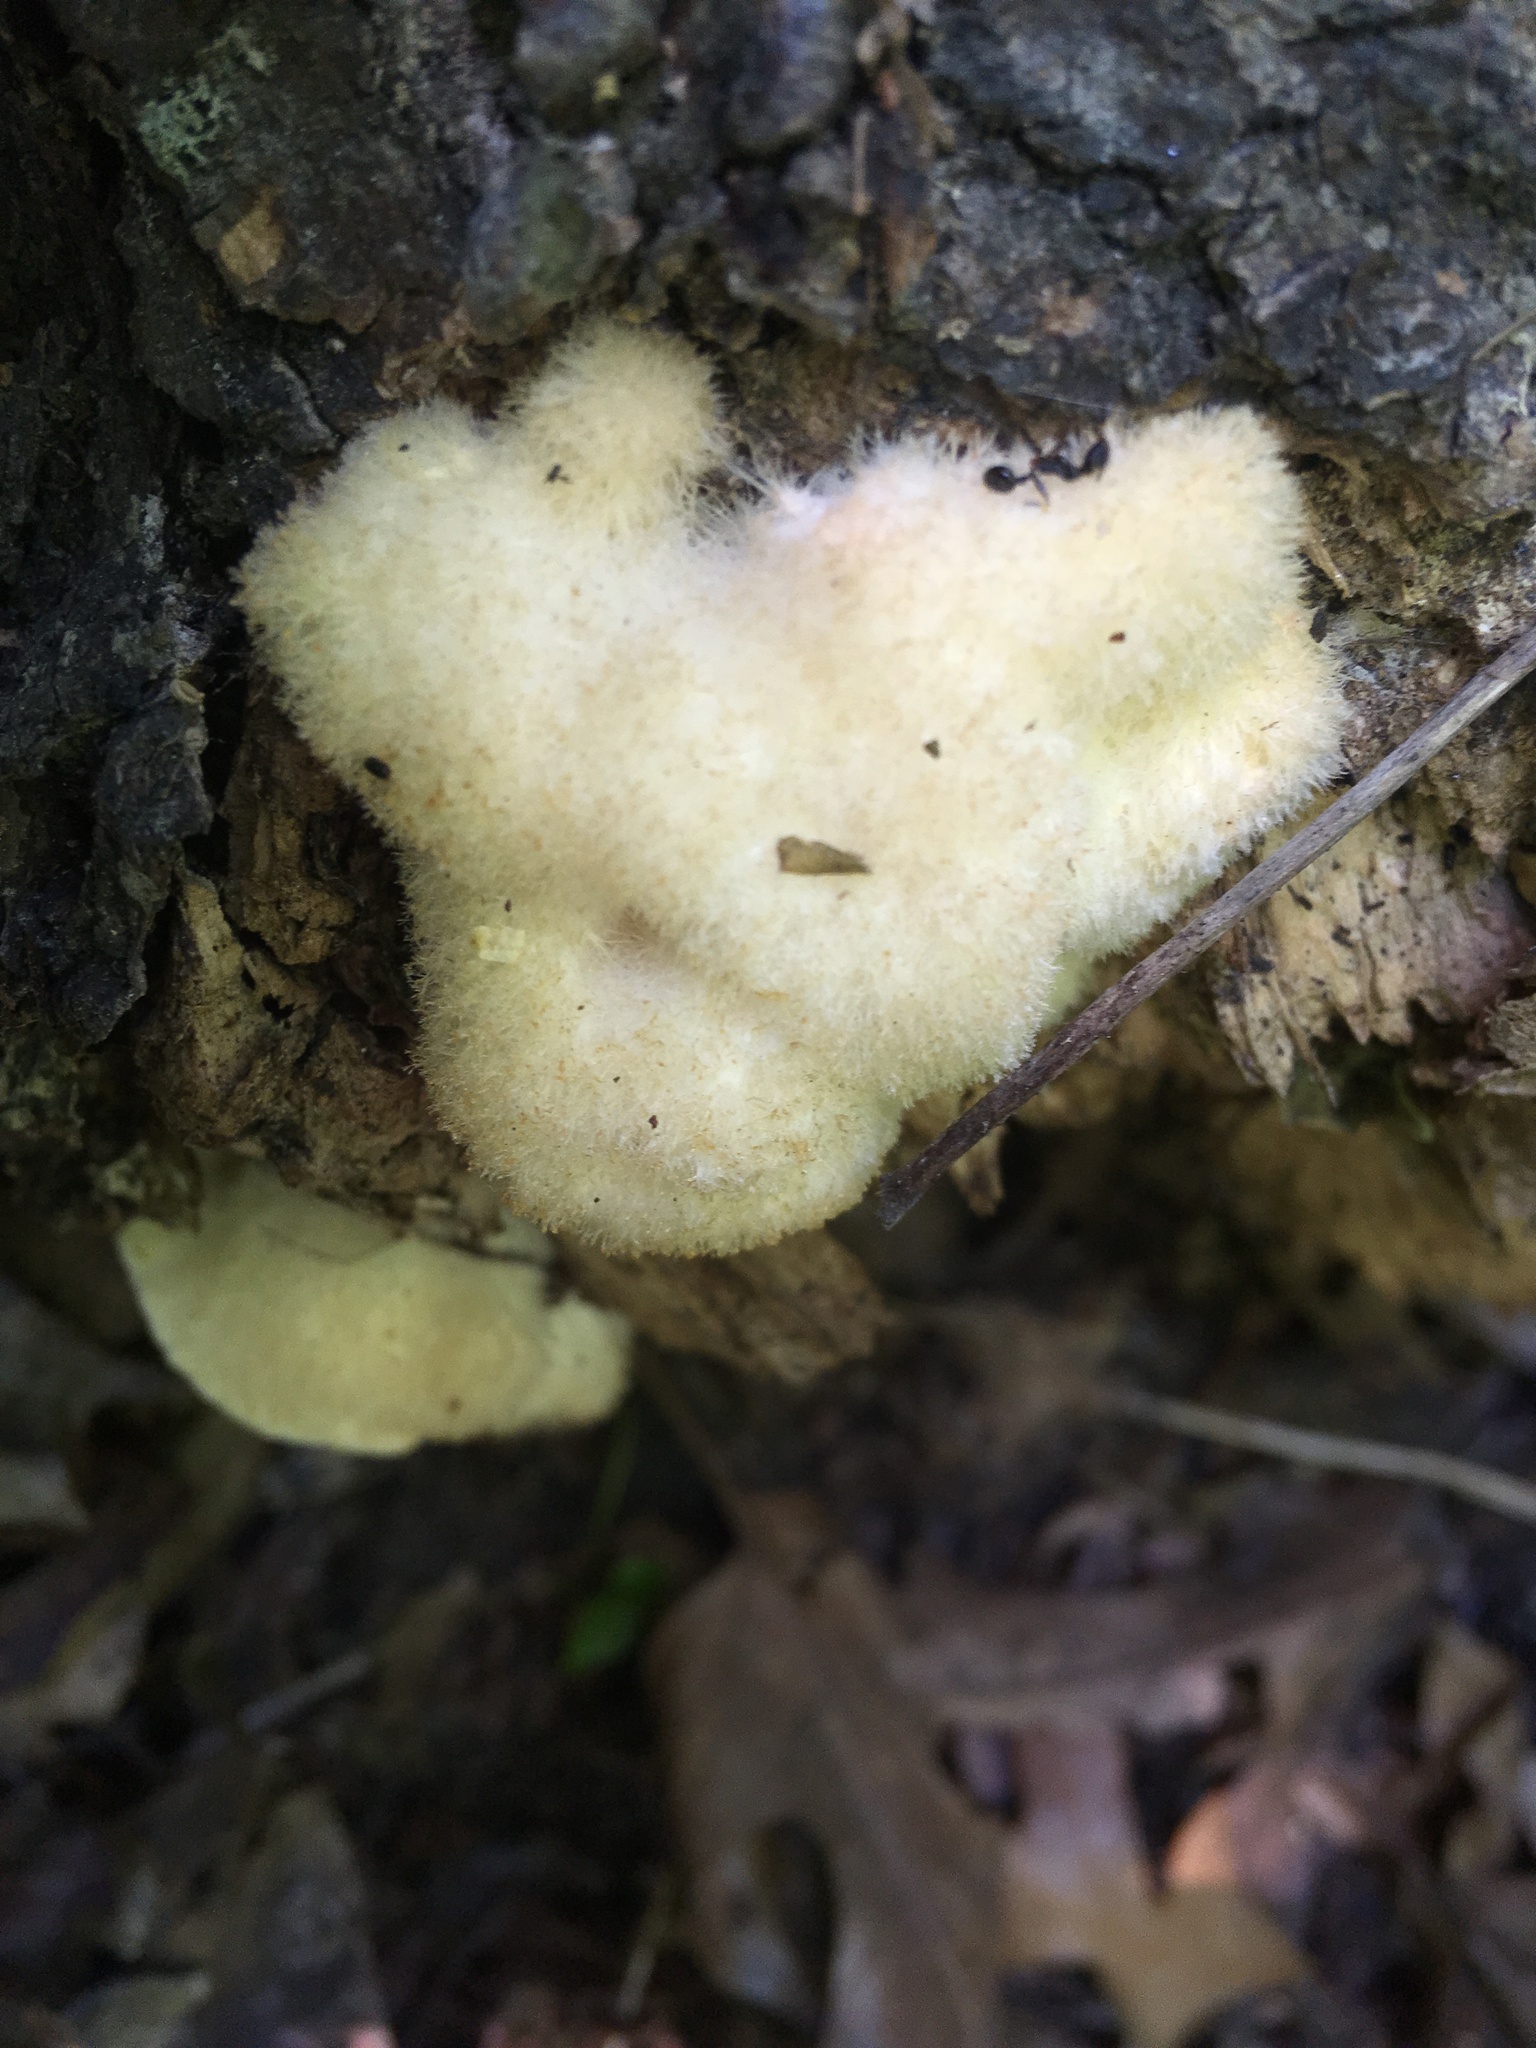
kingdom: Fungi
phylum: Basidiomycota
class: Agaricomycetes
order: Polyporales
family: Meruliaceae
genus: Donkia
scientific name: Donkia pulcherrima
